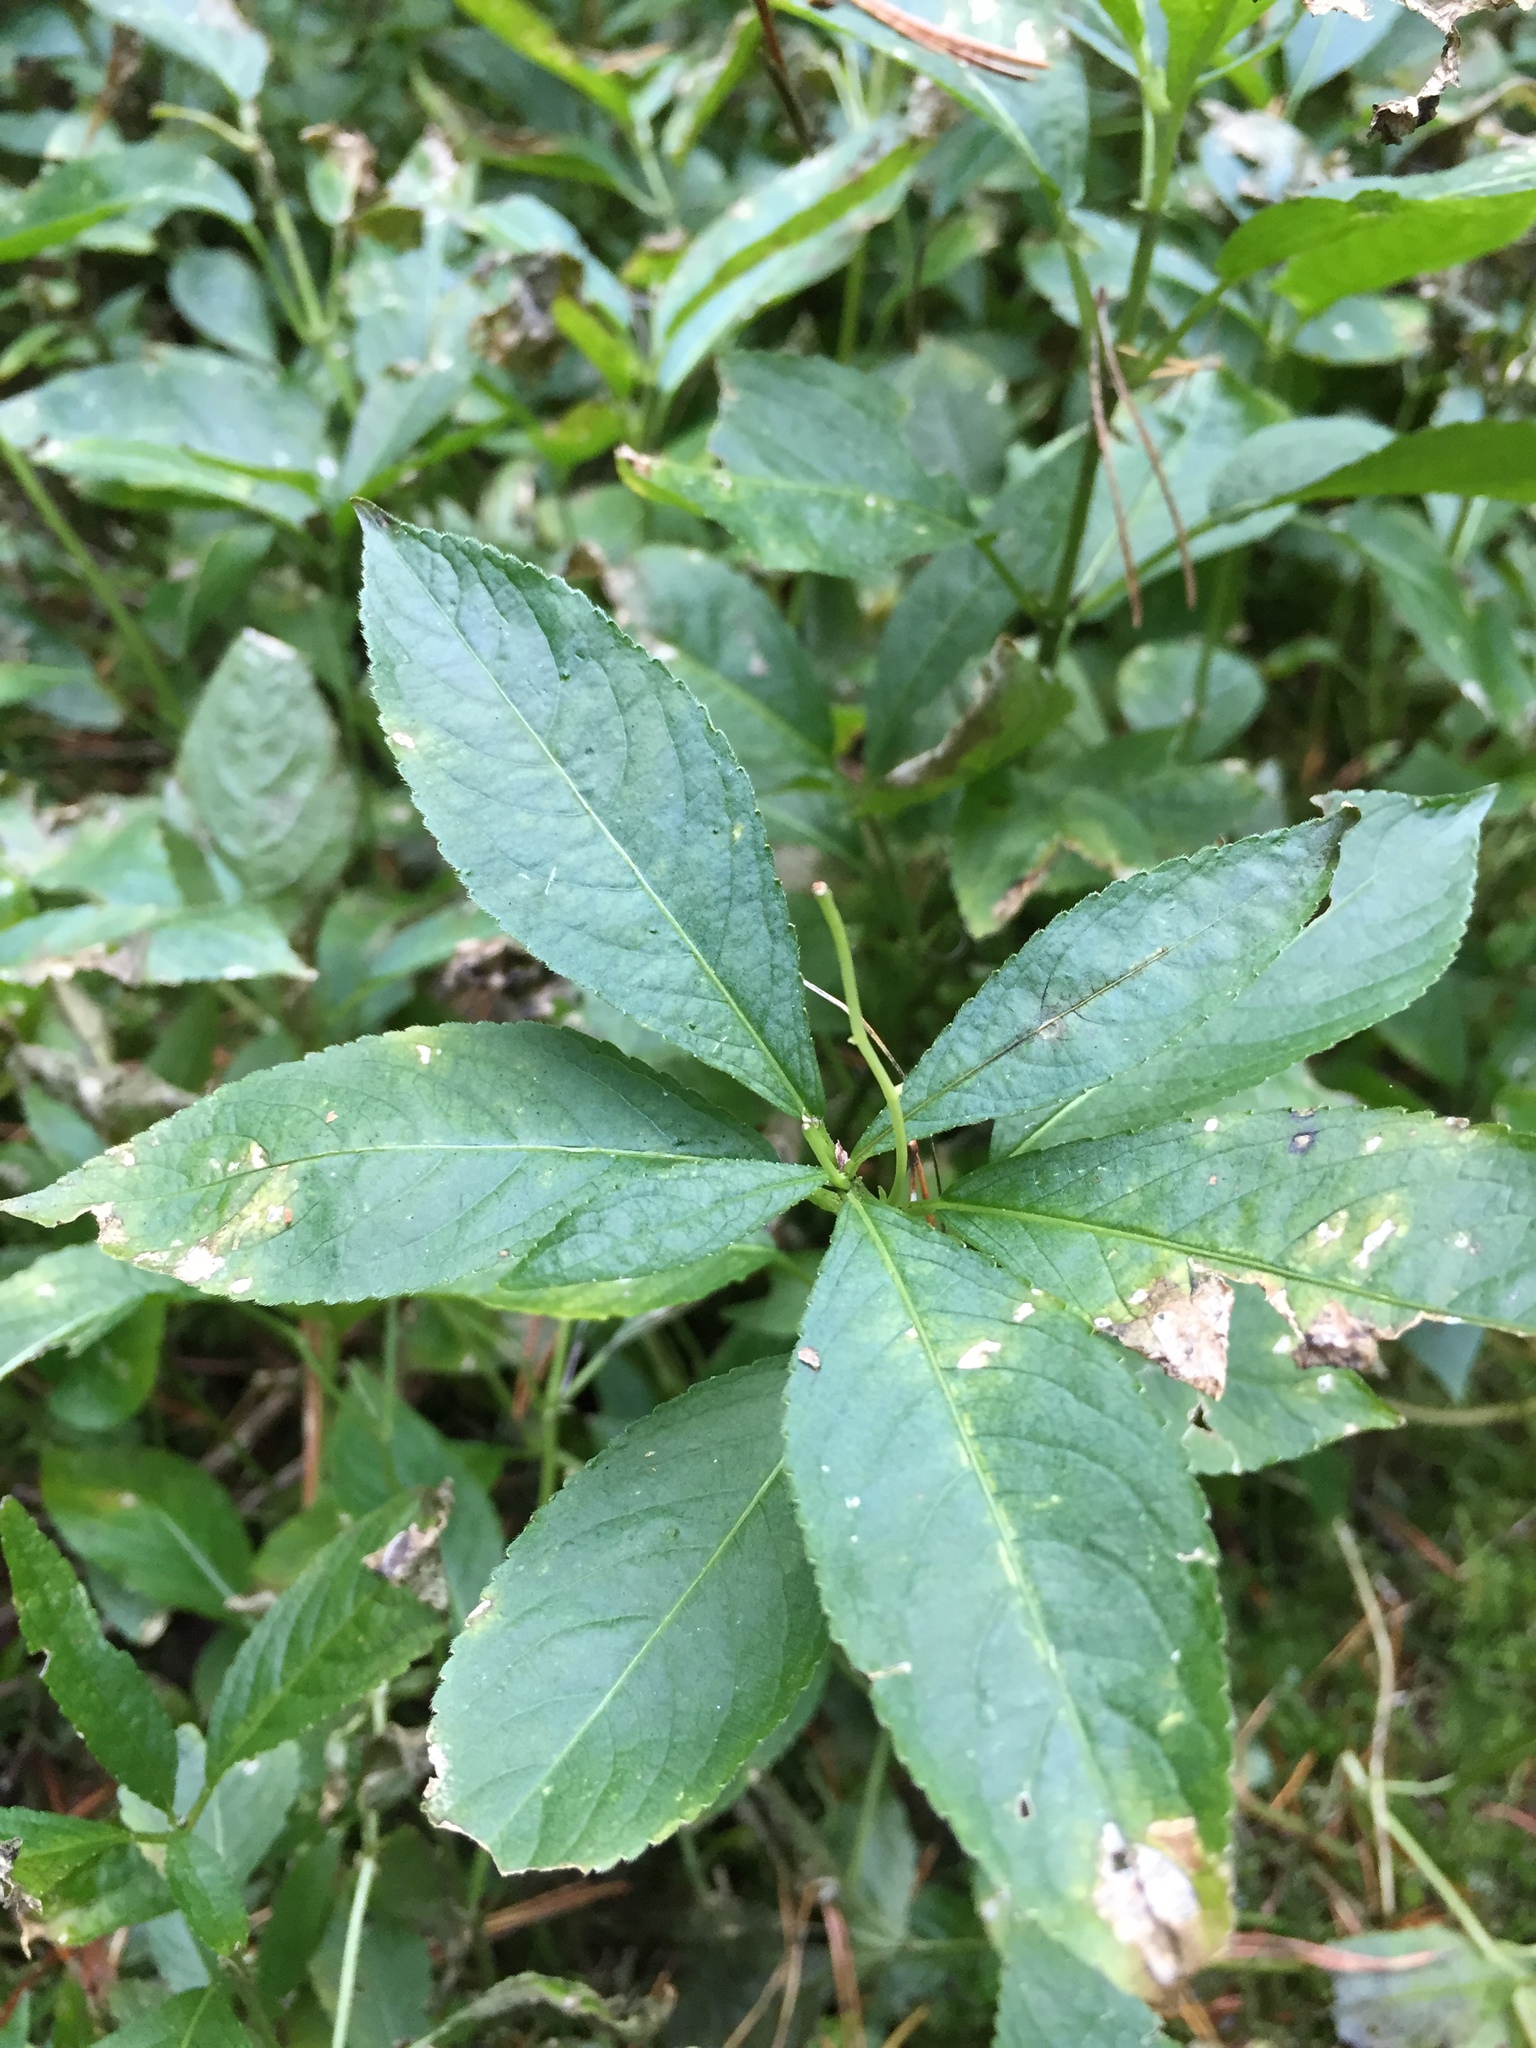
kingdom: Plantae
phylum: Tracheophyta
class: Magnoliopsida
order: Malpighiales
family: Euphorbiaceae
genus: Mercurialis
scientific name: Mercurialis perennis
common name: Dog mercury
